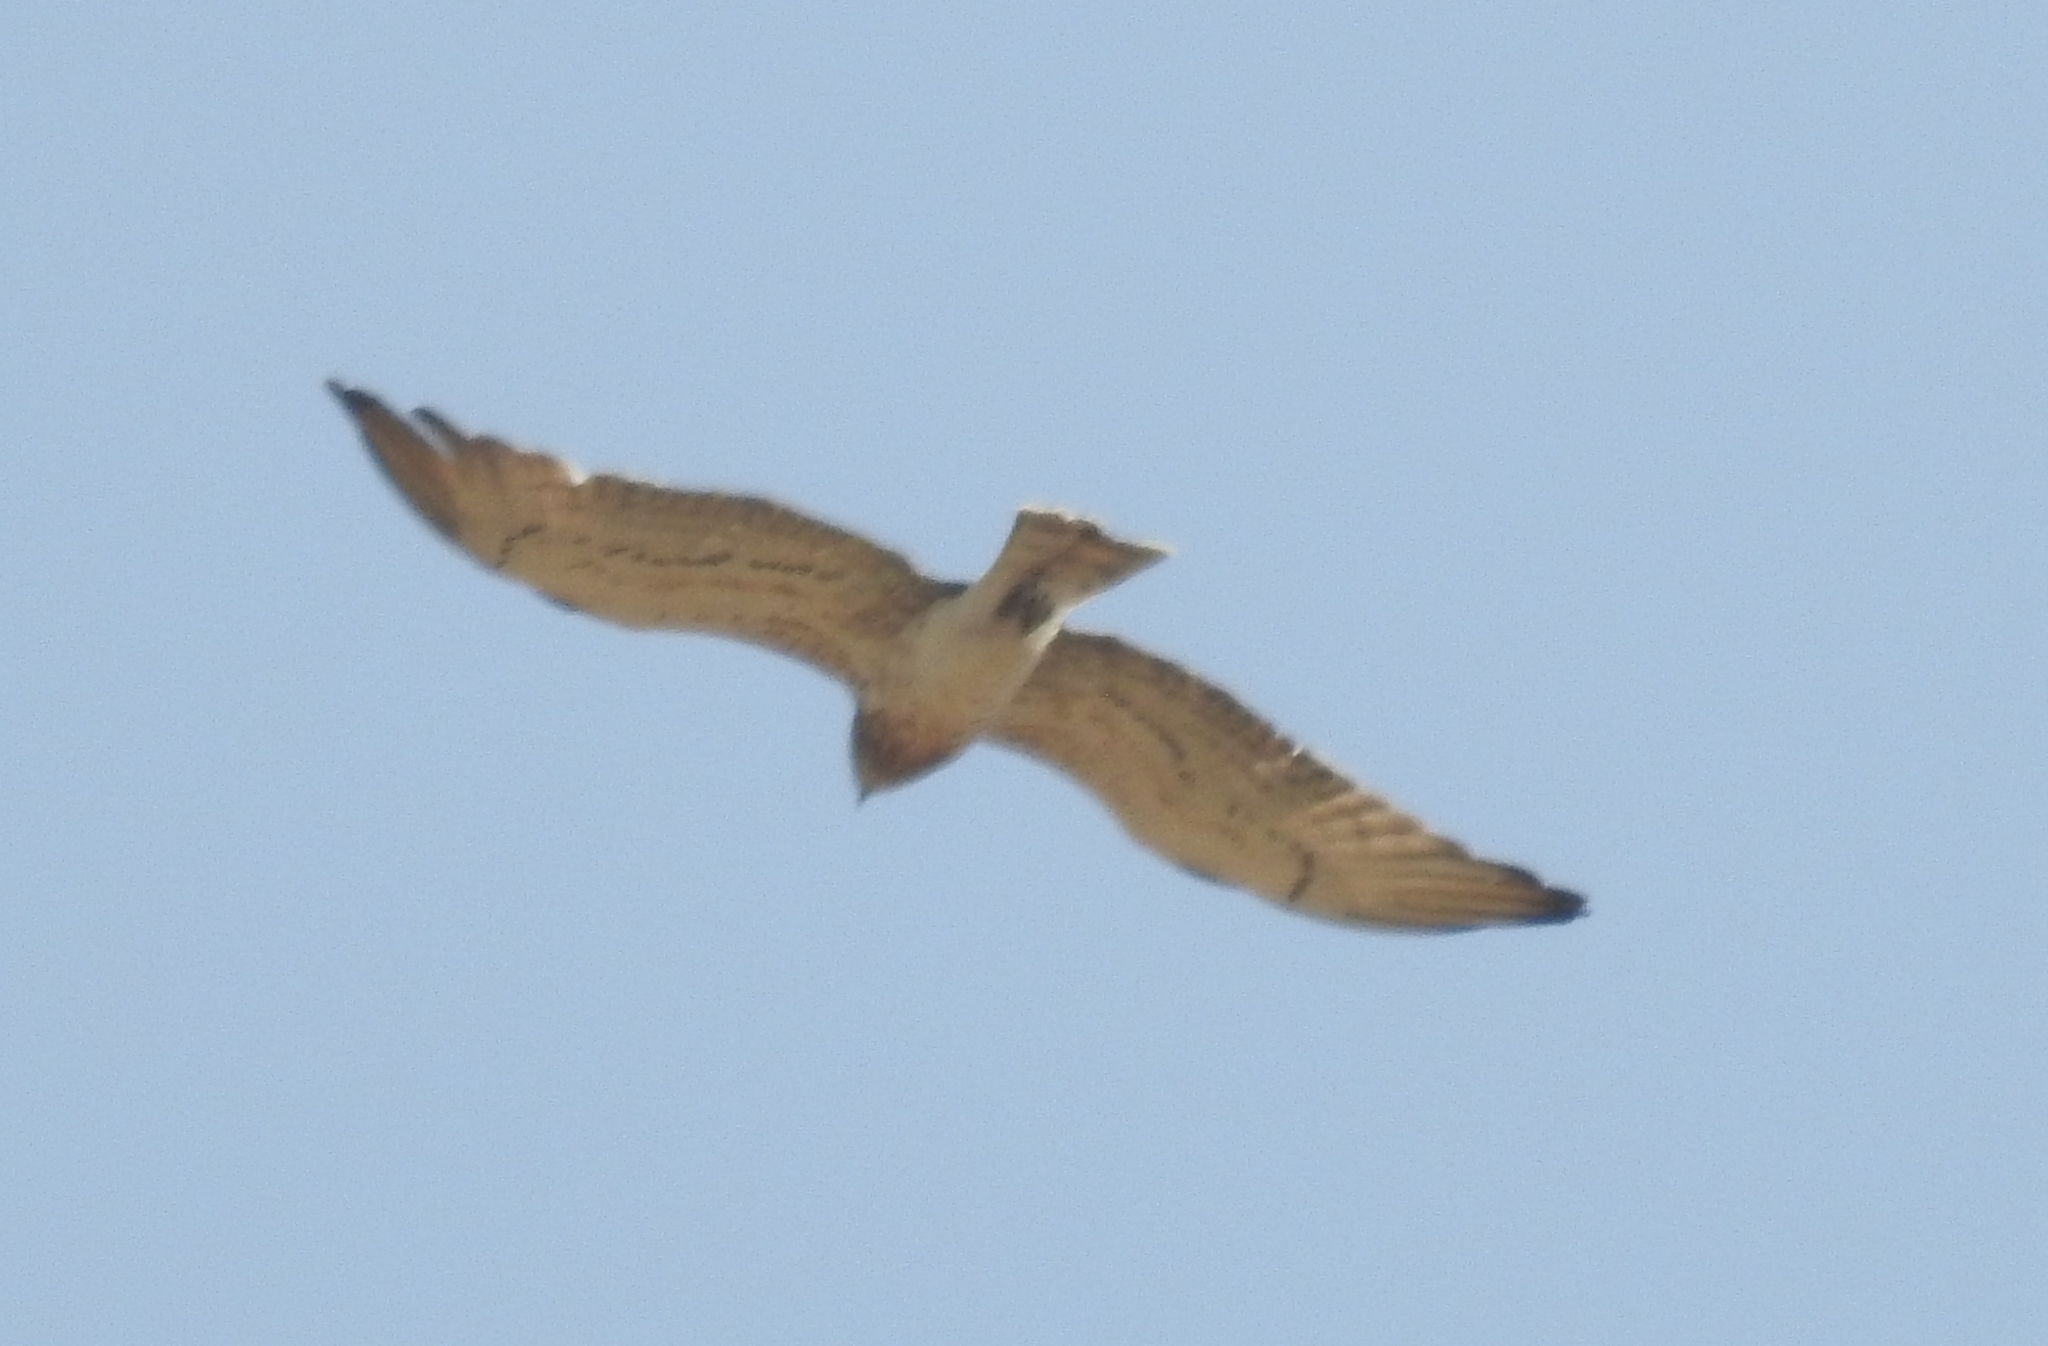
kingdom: Animalia
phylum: Chordata
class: Aves
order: Accipitriformes
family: Accipitridae
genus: Circaetus
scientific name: Circaetus gallicus
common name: Short-toed snake eagle
